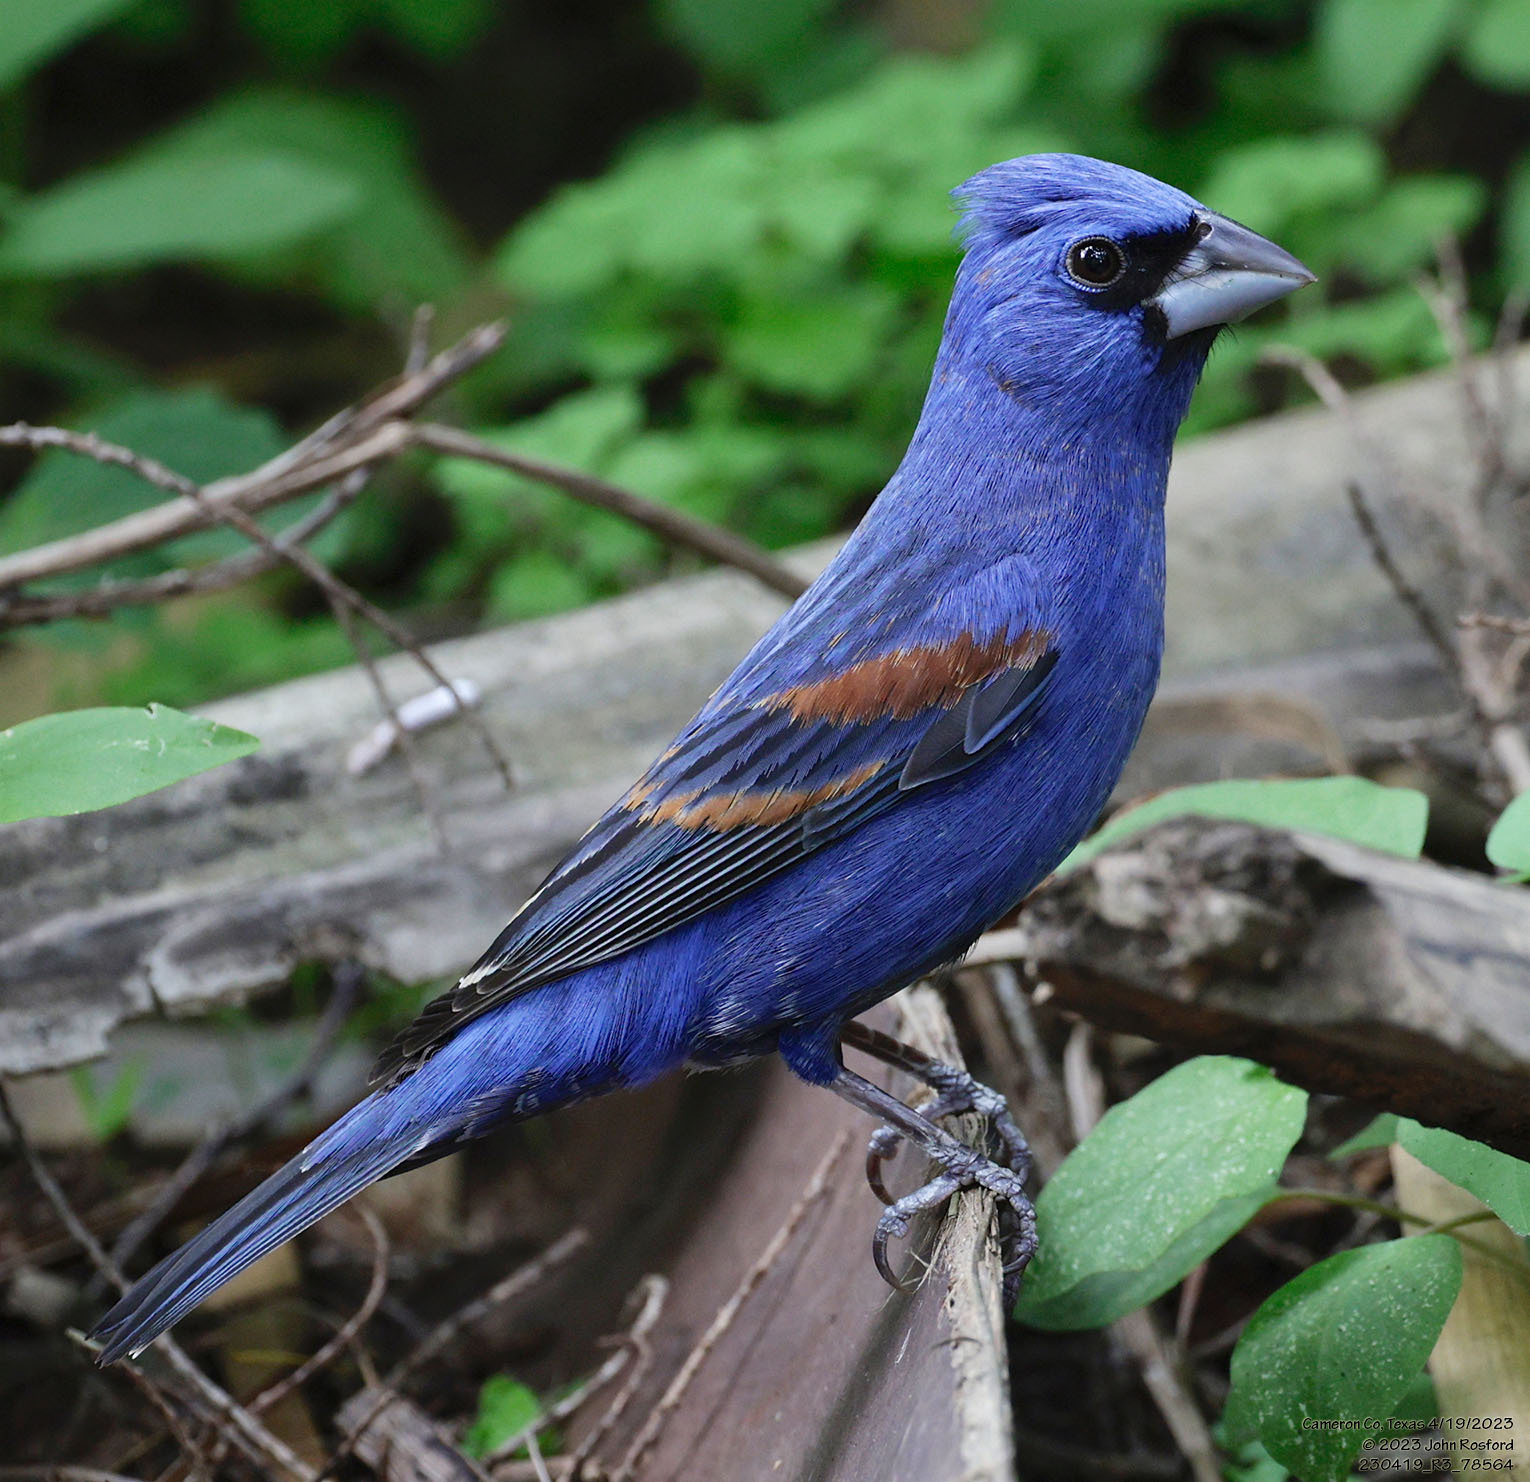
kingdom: Animalia
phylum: Chordata
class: Aves
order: Passeriformes
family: Cardinalidae
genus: Passerina
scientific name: Passerina caerulea
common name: Blue grosbeak
